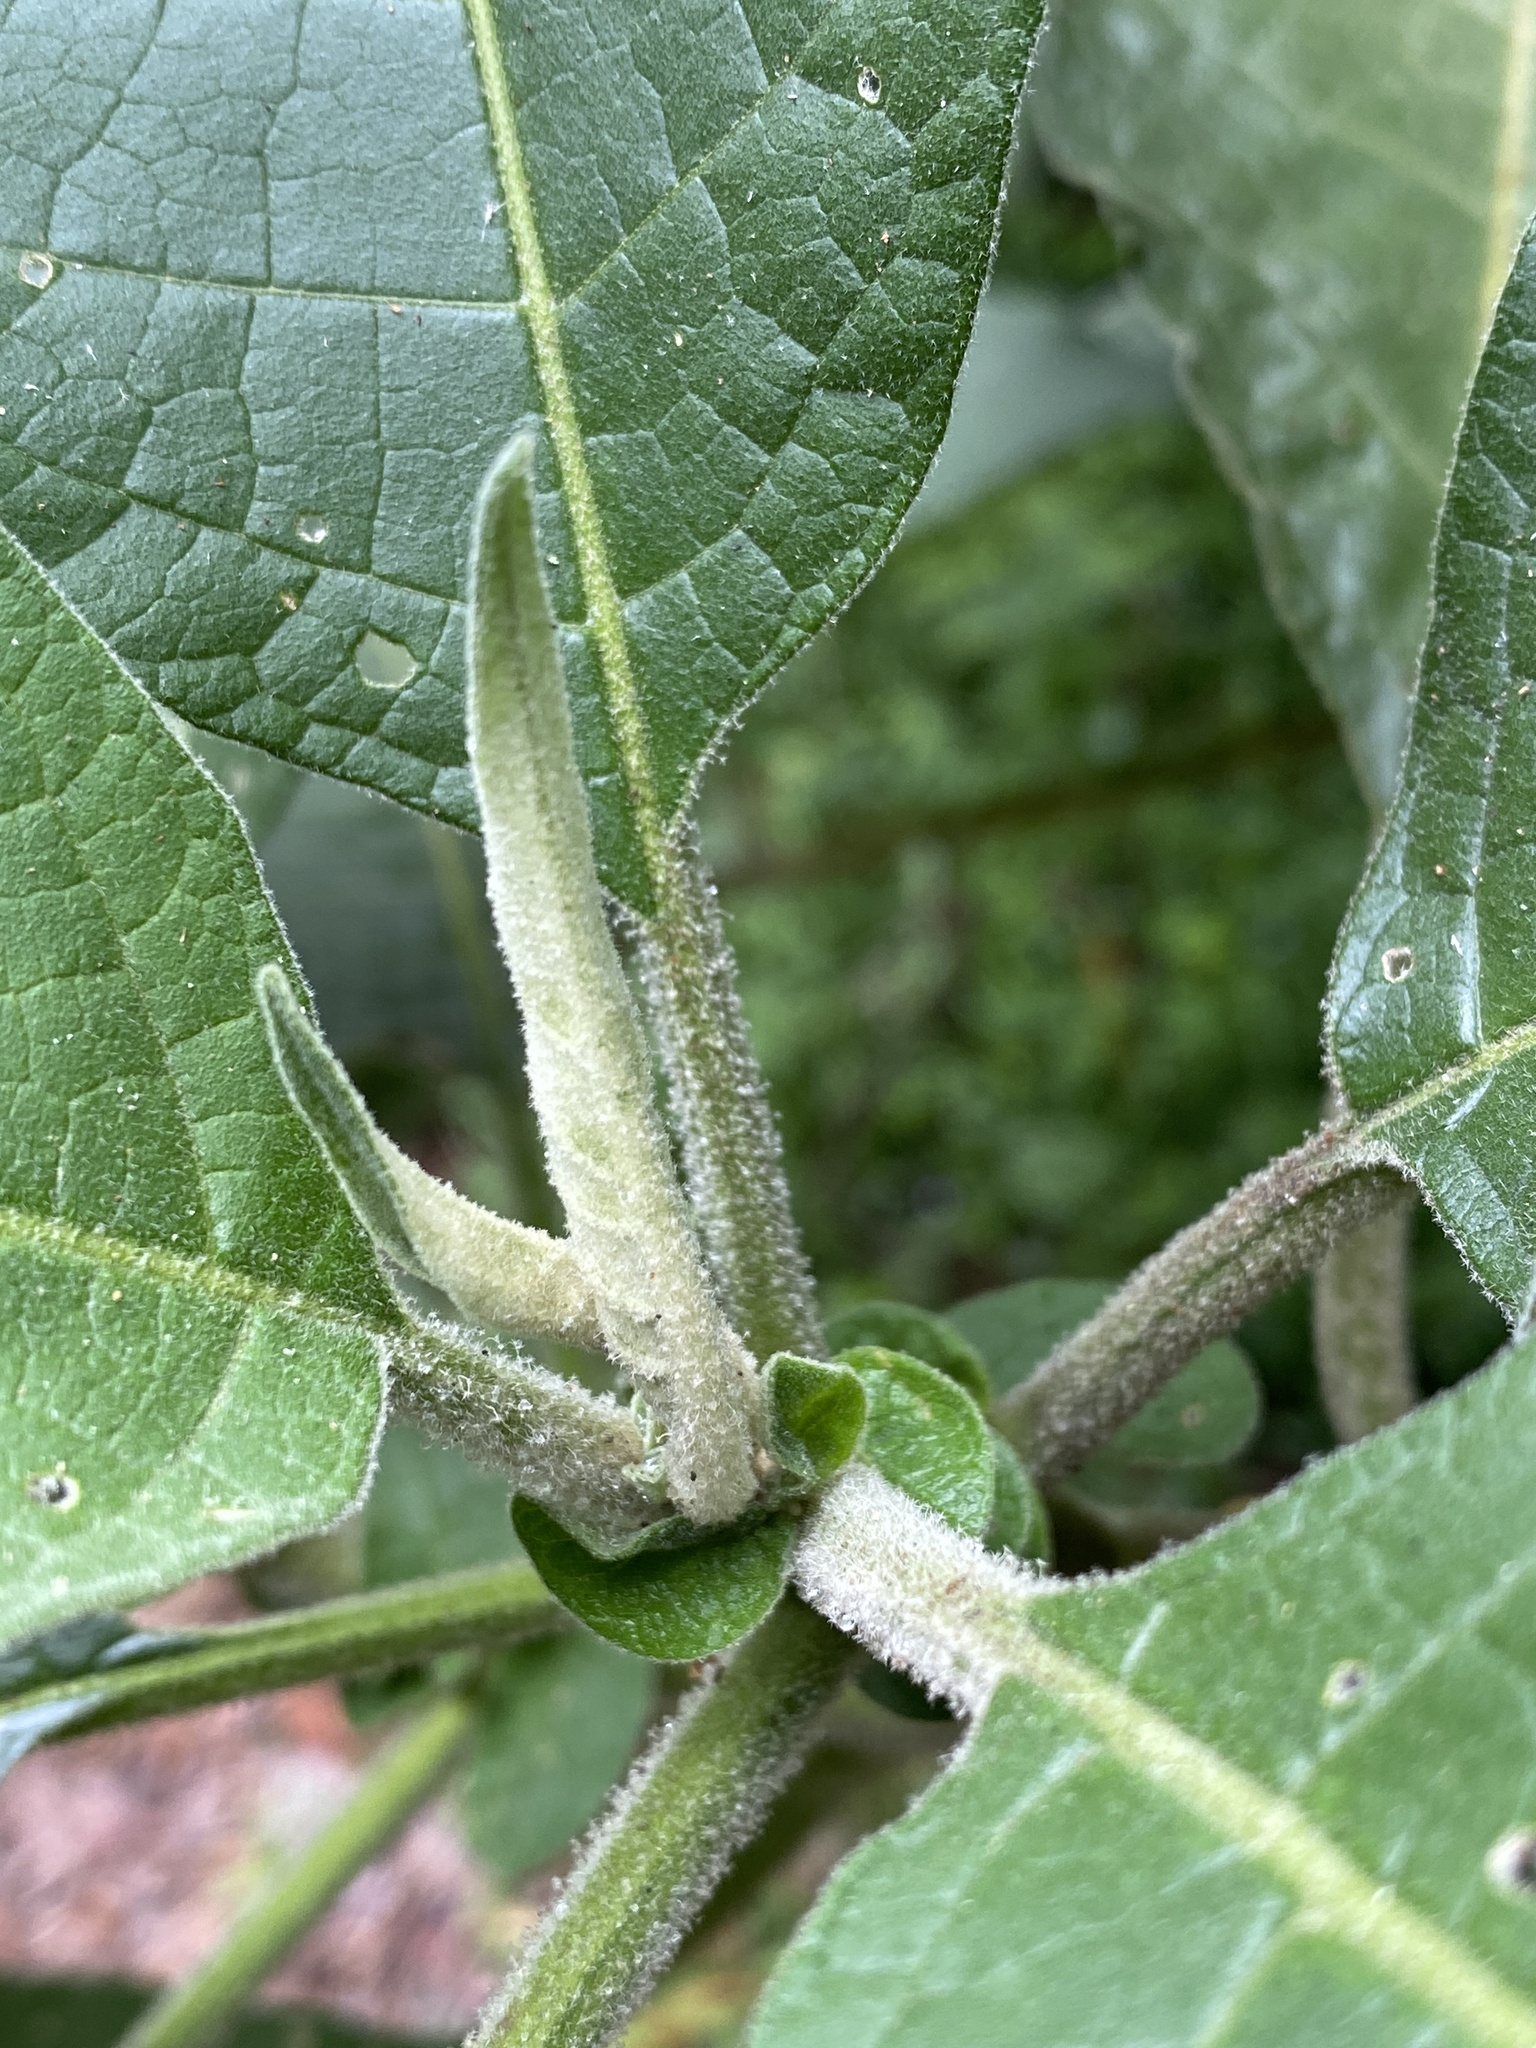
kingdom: Plantae
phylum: Tracheophyta
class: Magnoliopsida
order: Solanales
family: Solanaceae
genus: Solanum
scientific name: Solanum mauritianum
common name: Earleaf nightshade
